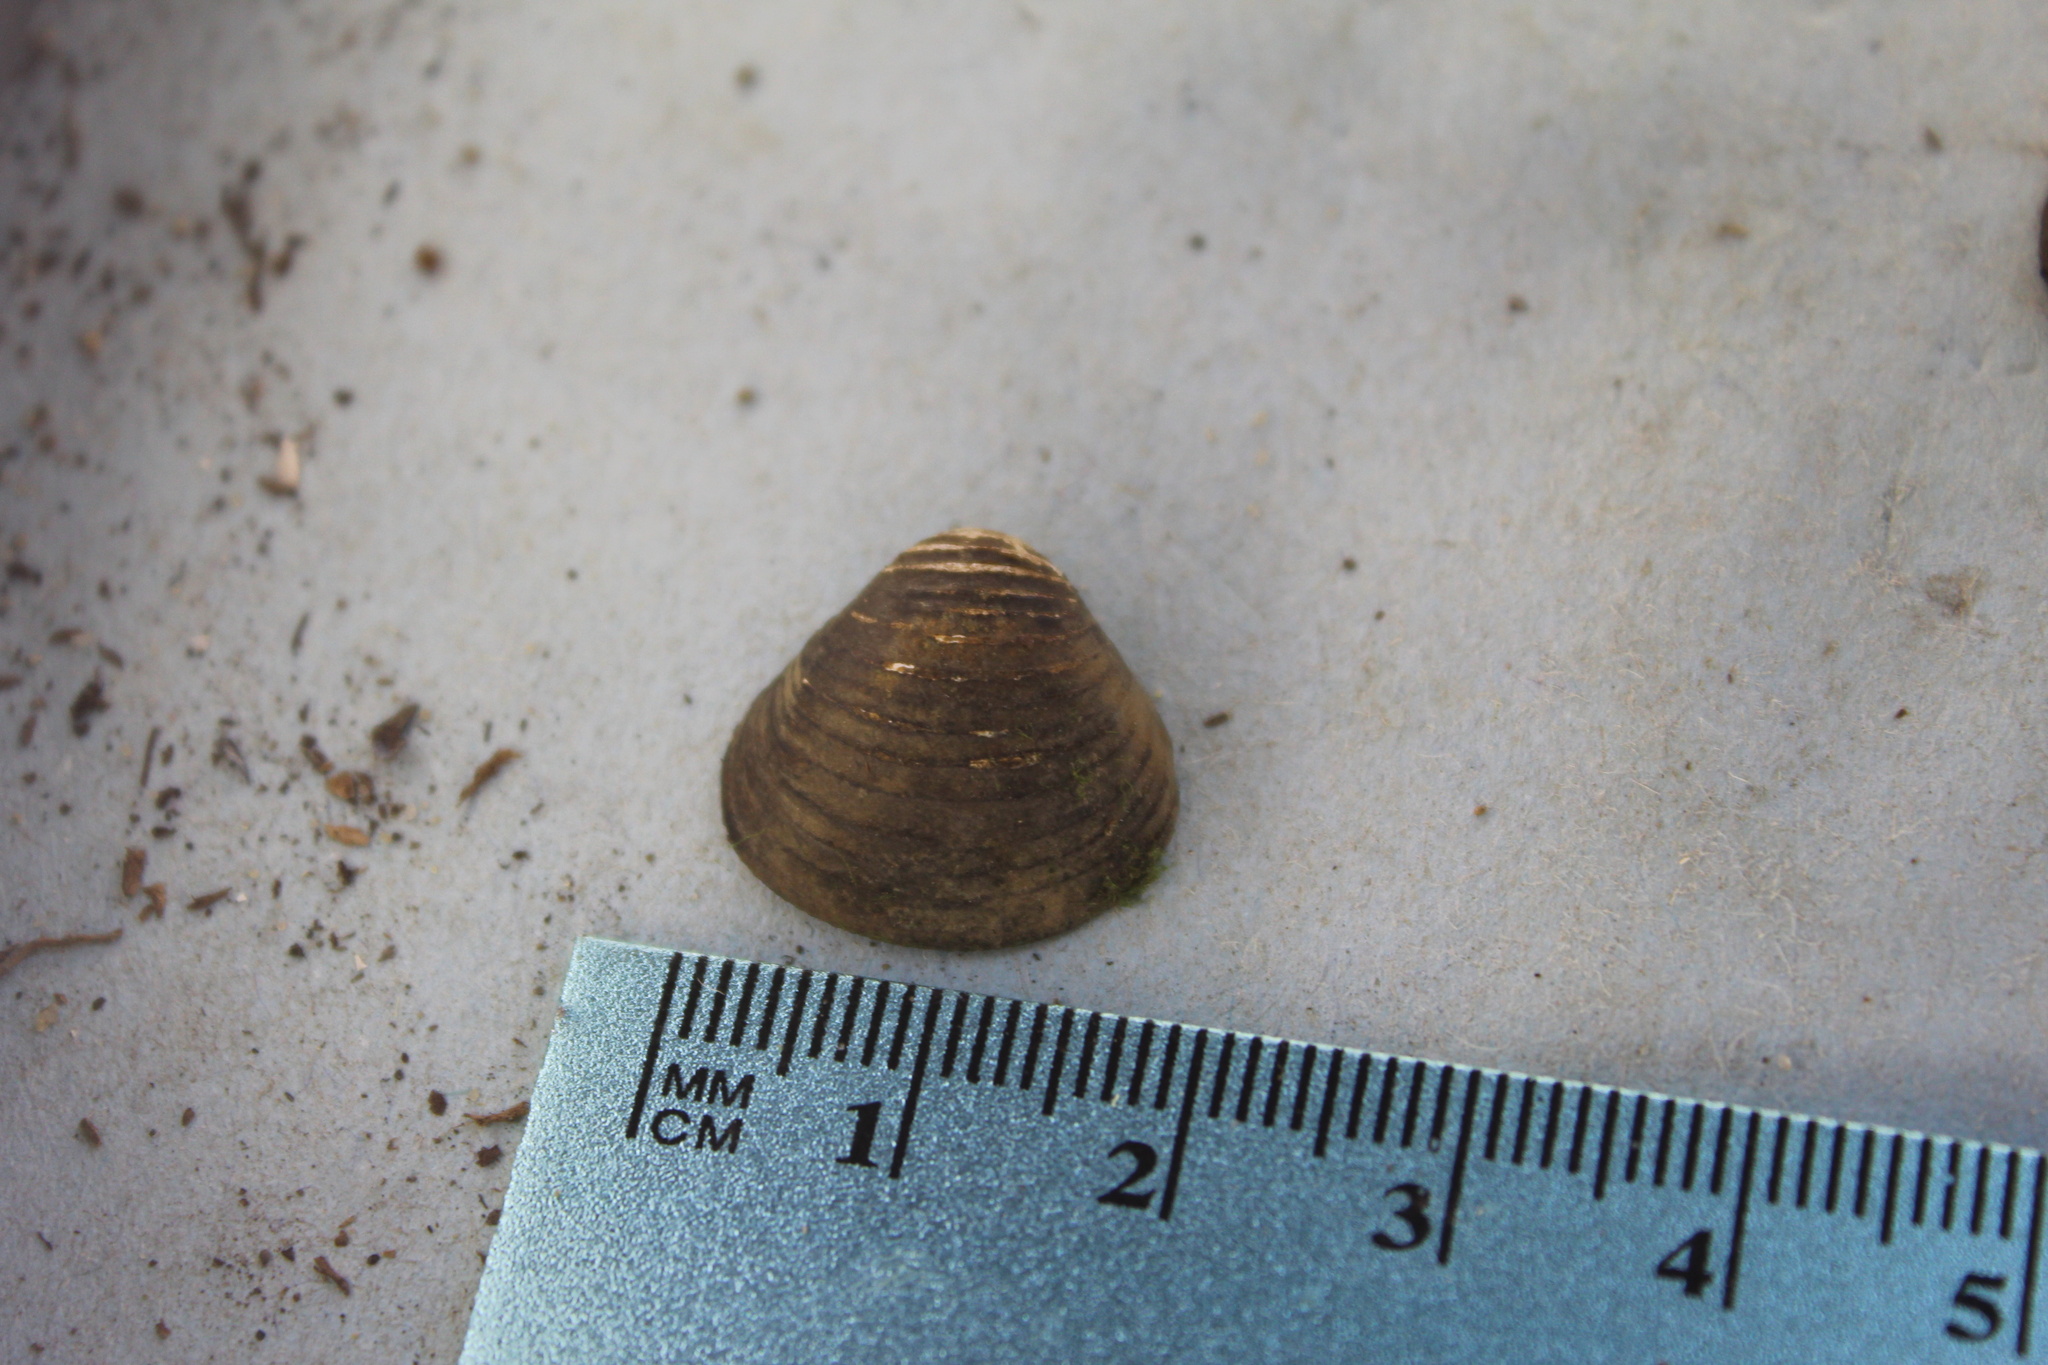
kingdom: Animalia
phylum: Mollusca
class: Bivalvia
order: Venerida
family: Cyrenidae
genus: Corbicula
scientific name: Corbicula fluminea
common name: Asian clam
